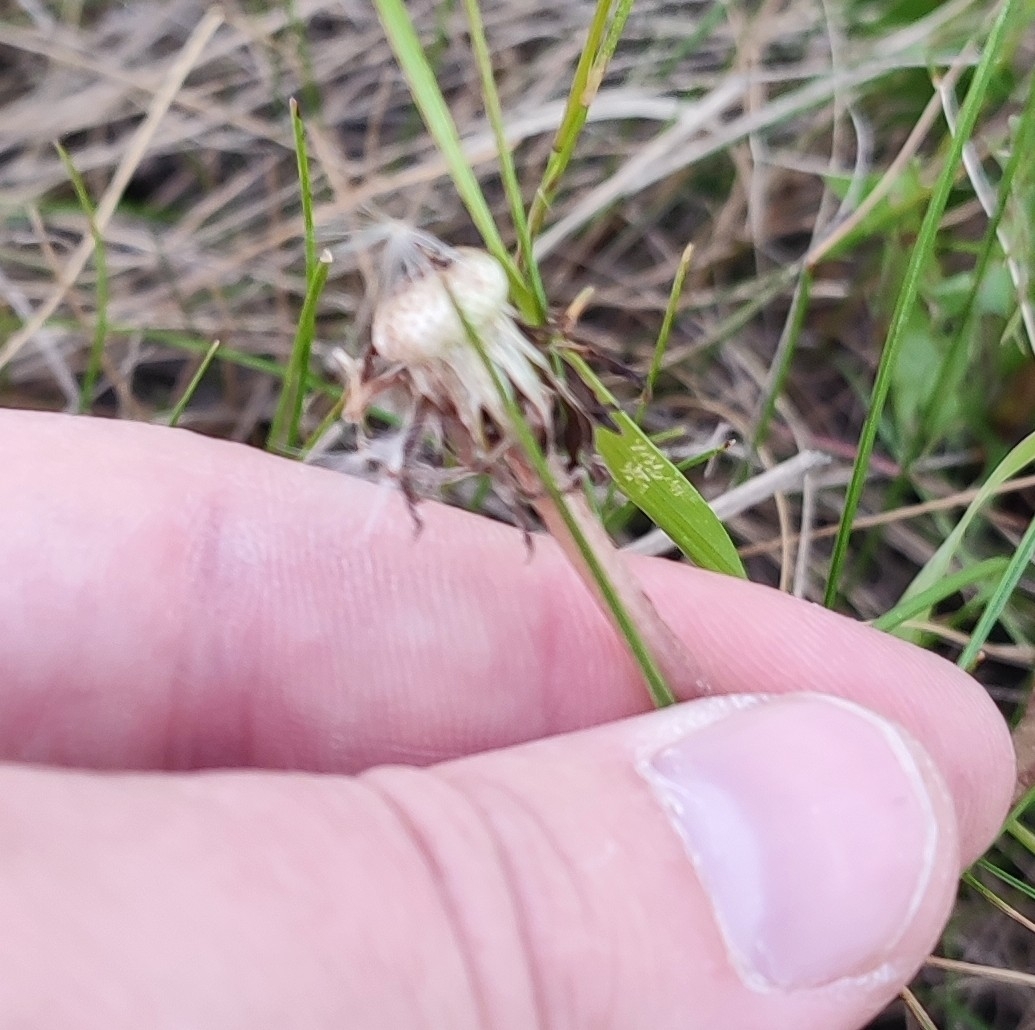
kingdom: Plantae
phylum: Tracheophyta
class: Magnoliopsida
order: Asterales
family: Asteraceae
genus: Taraxacum
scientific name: Taraxacum officinale
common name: Common dandelion
